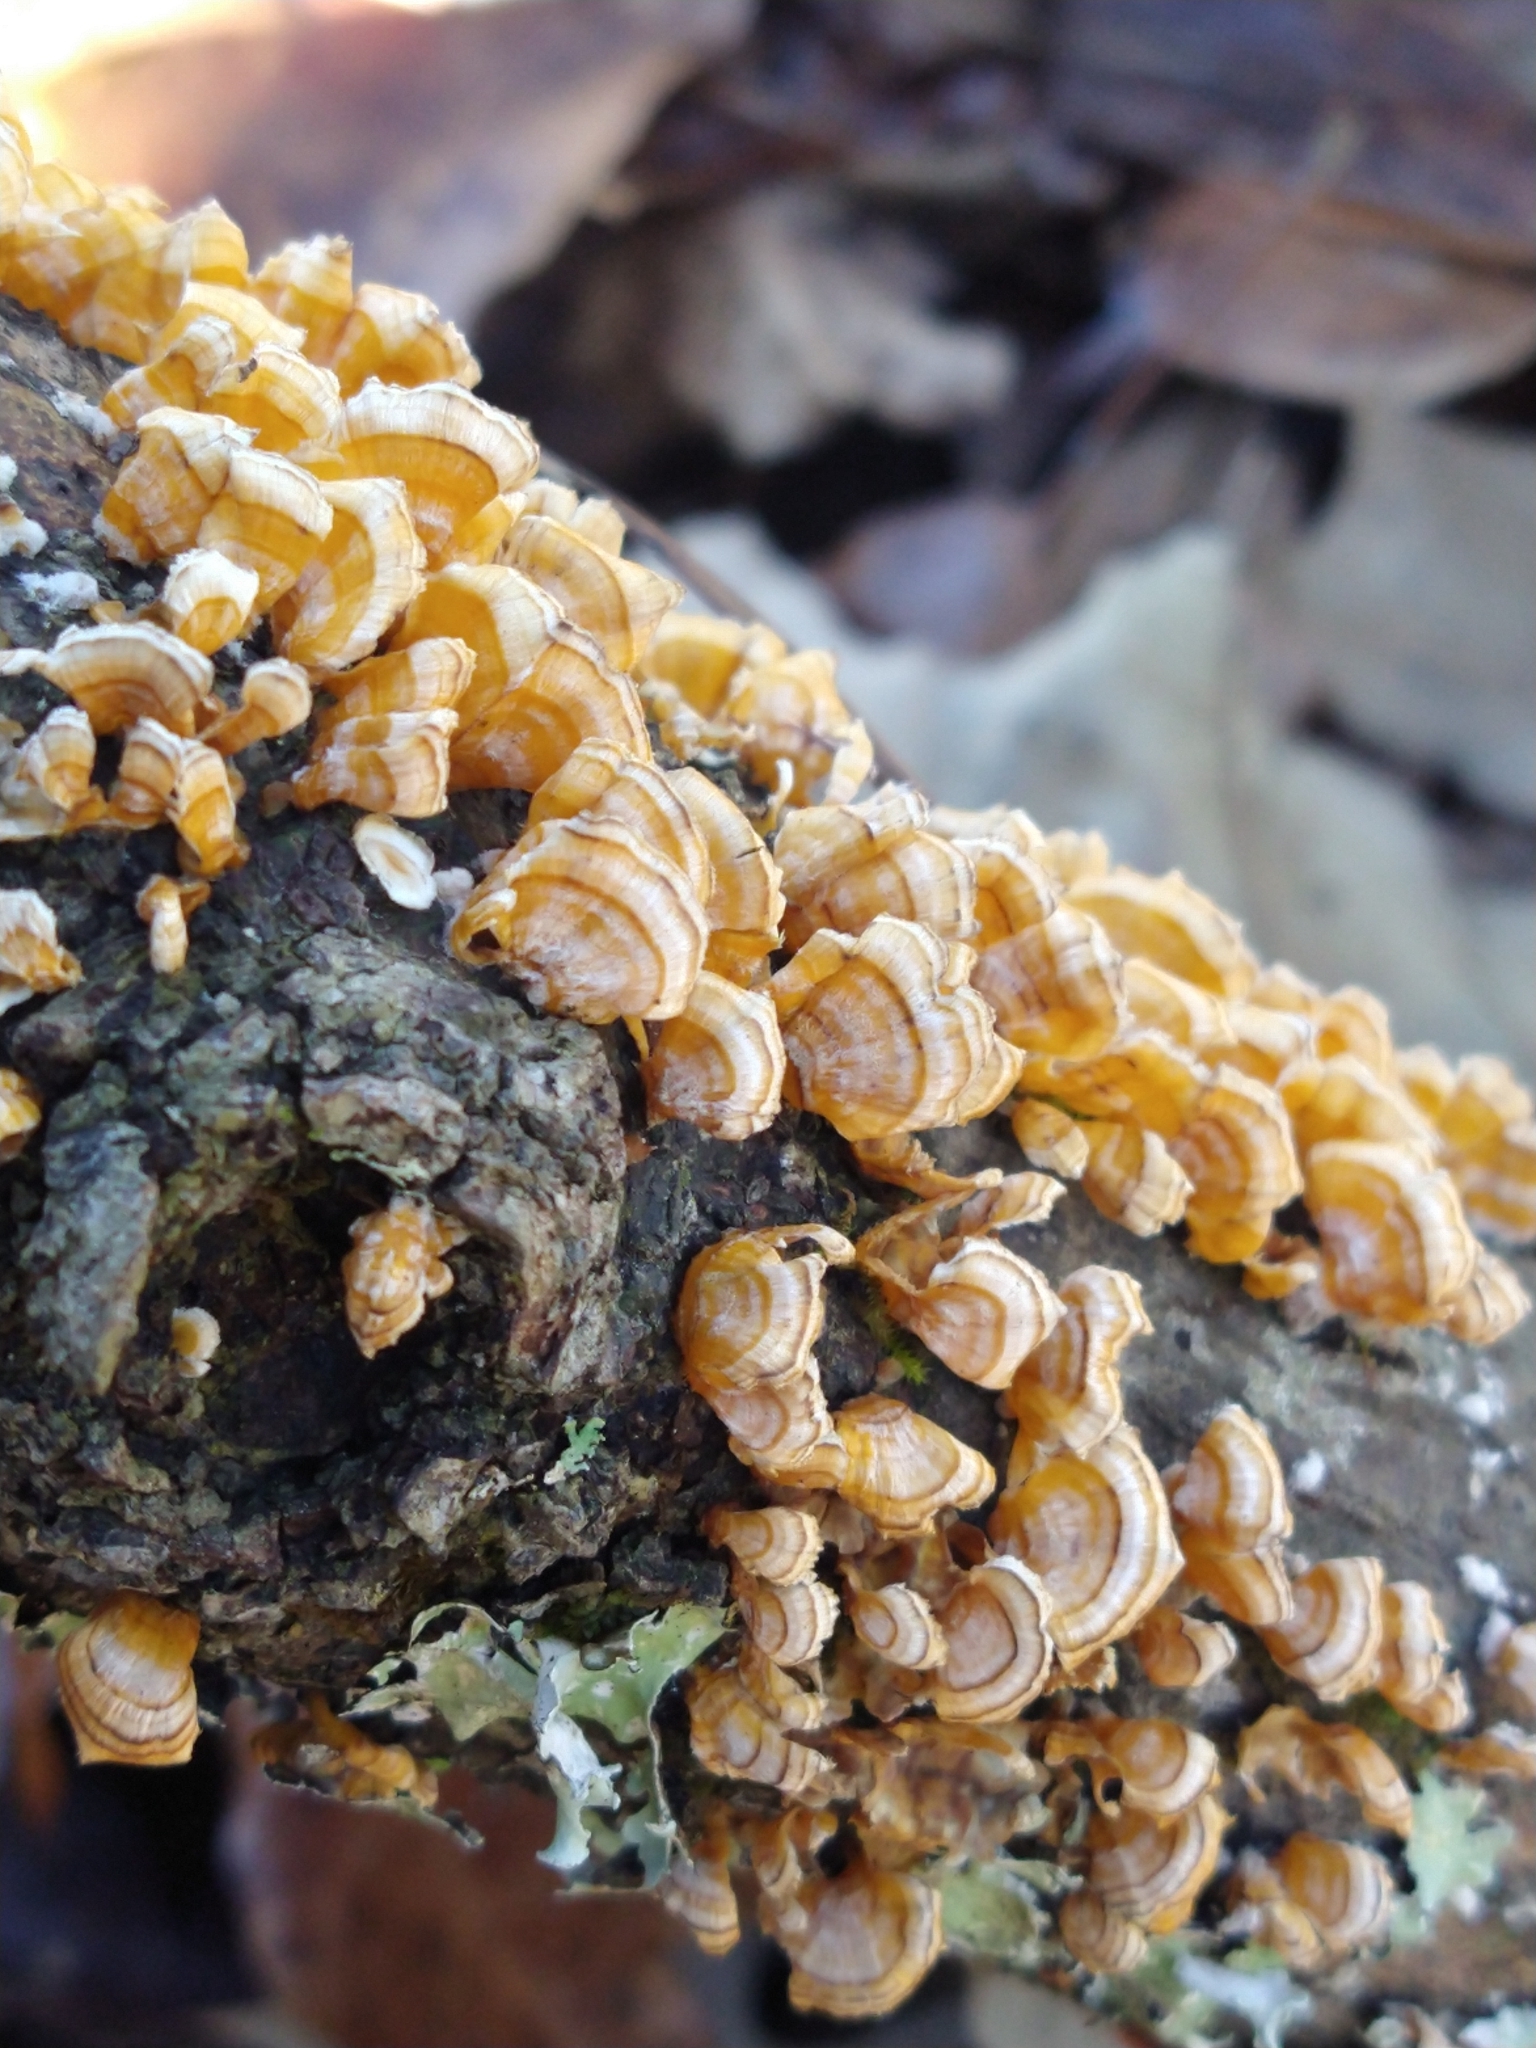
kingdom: Fungi
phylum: Basidiomycota
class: Agaricomycetes
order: Russulales
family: Stereaceae
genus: Stereum
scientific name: Stereum complicatum
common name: Crowded parchment
